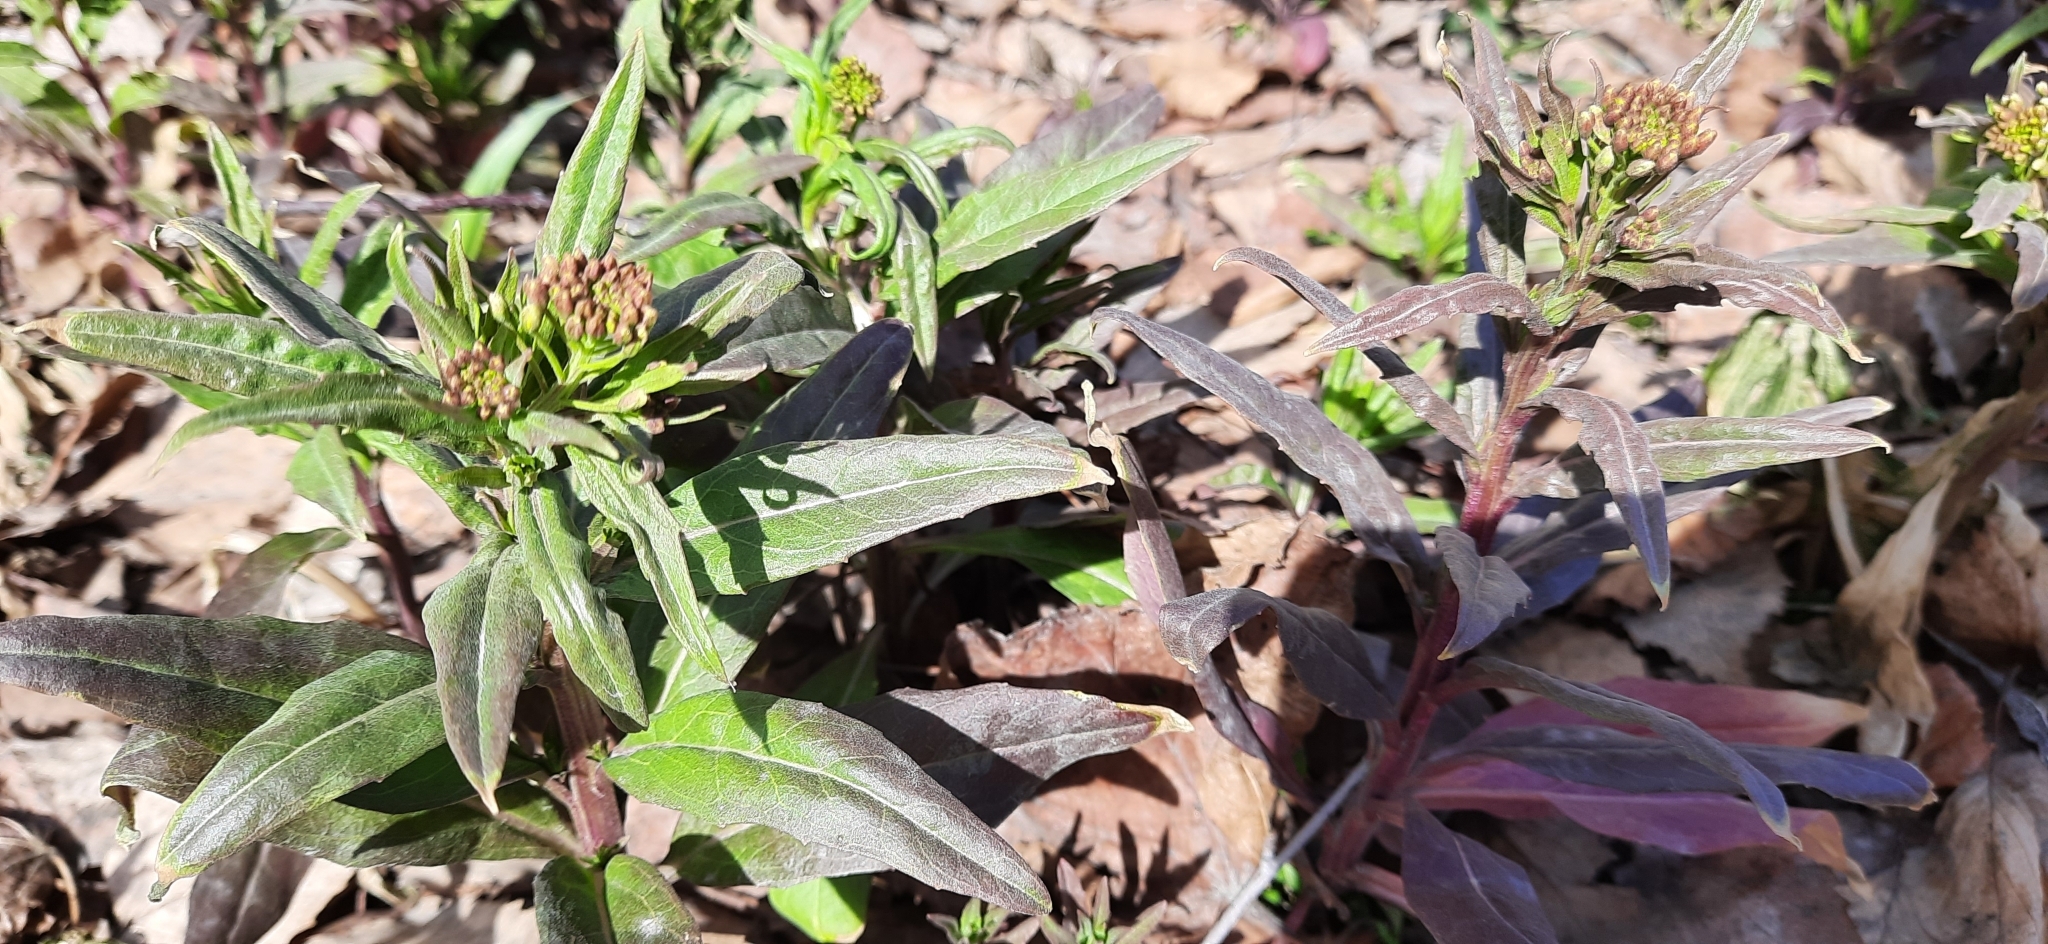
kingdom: Plantae
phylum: Tracheophyta
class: Magnoliopsida
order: Brassicales
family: Brassicaceae
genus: Erysimum
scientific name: Erysimum cheiranthoides
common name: Treacle mustard
